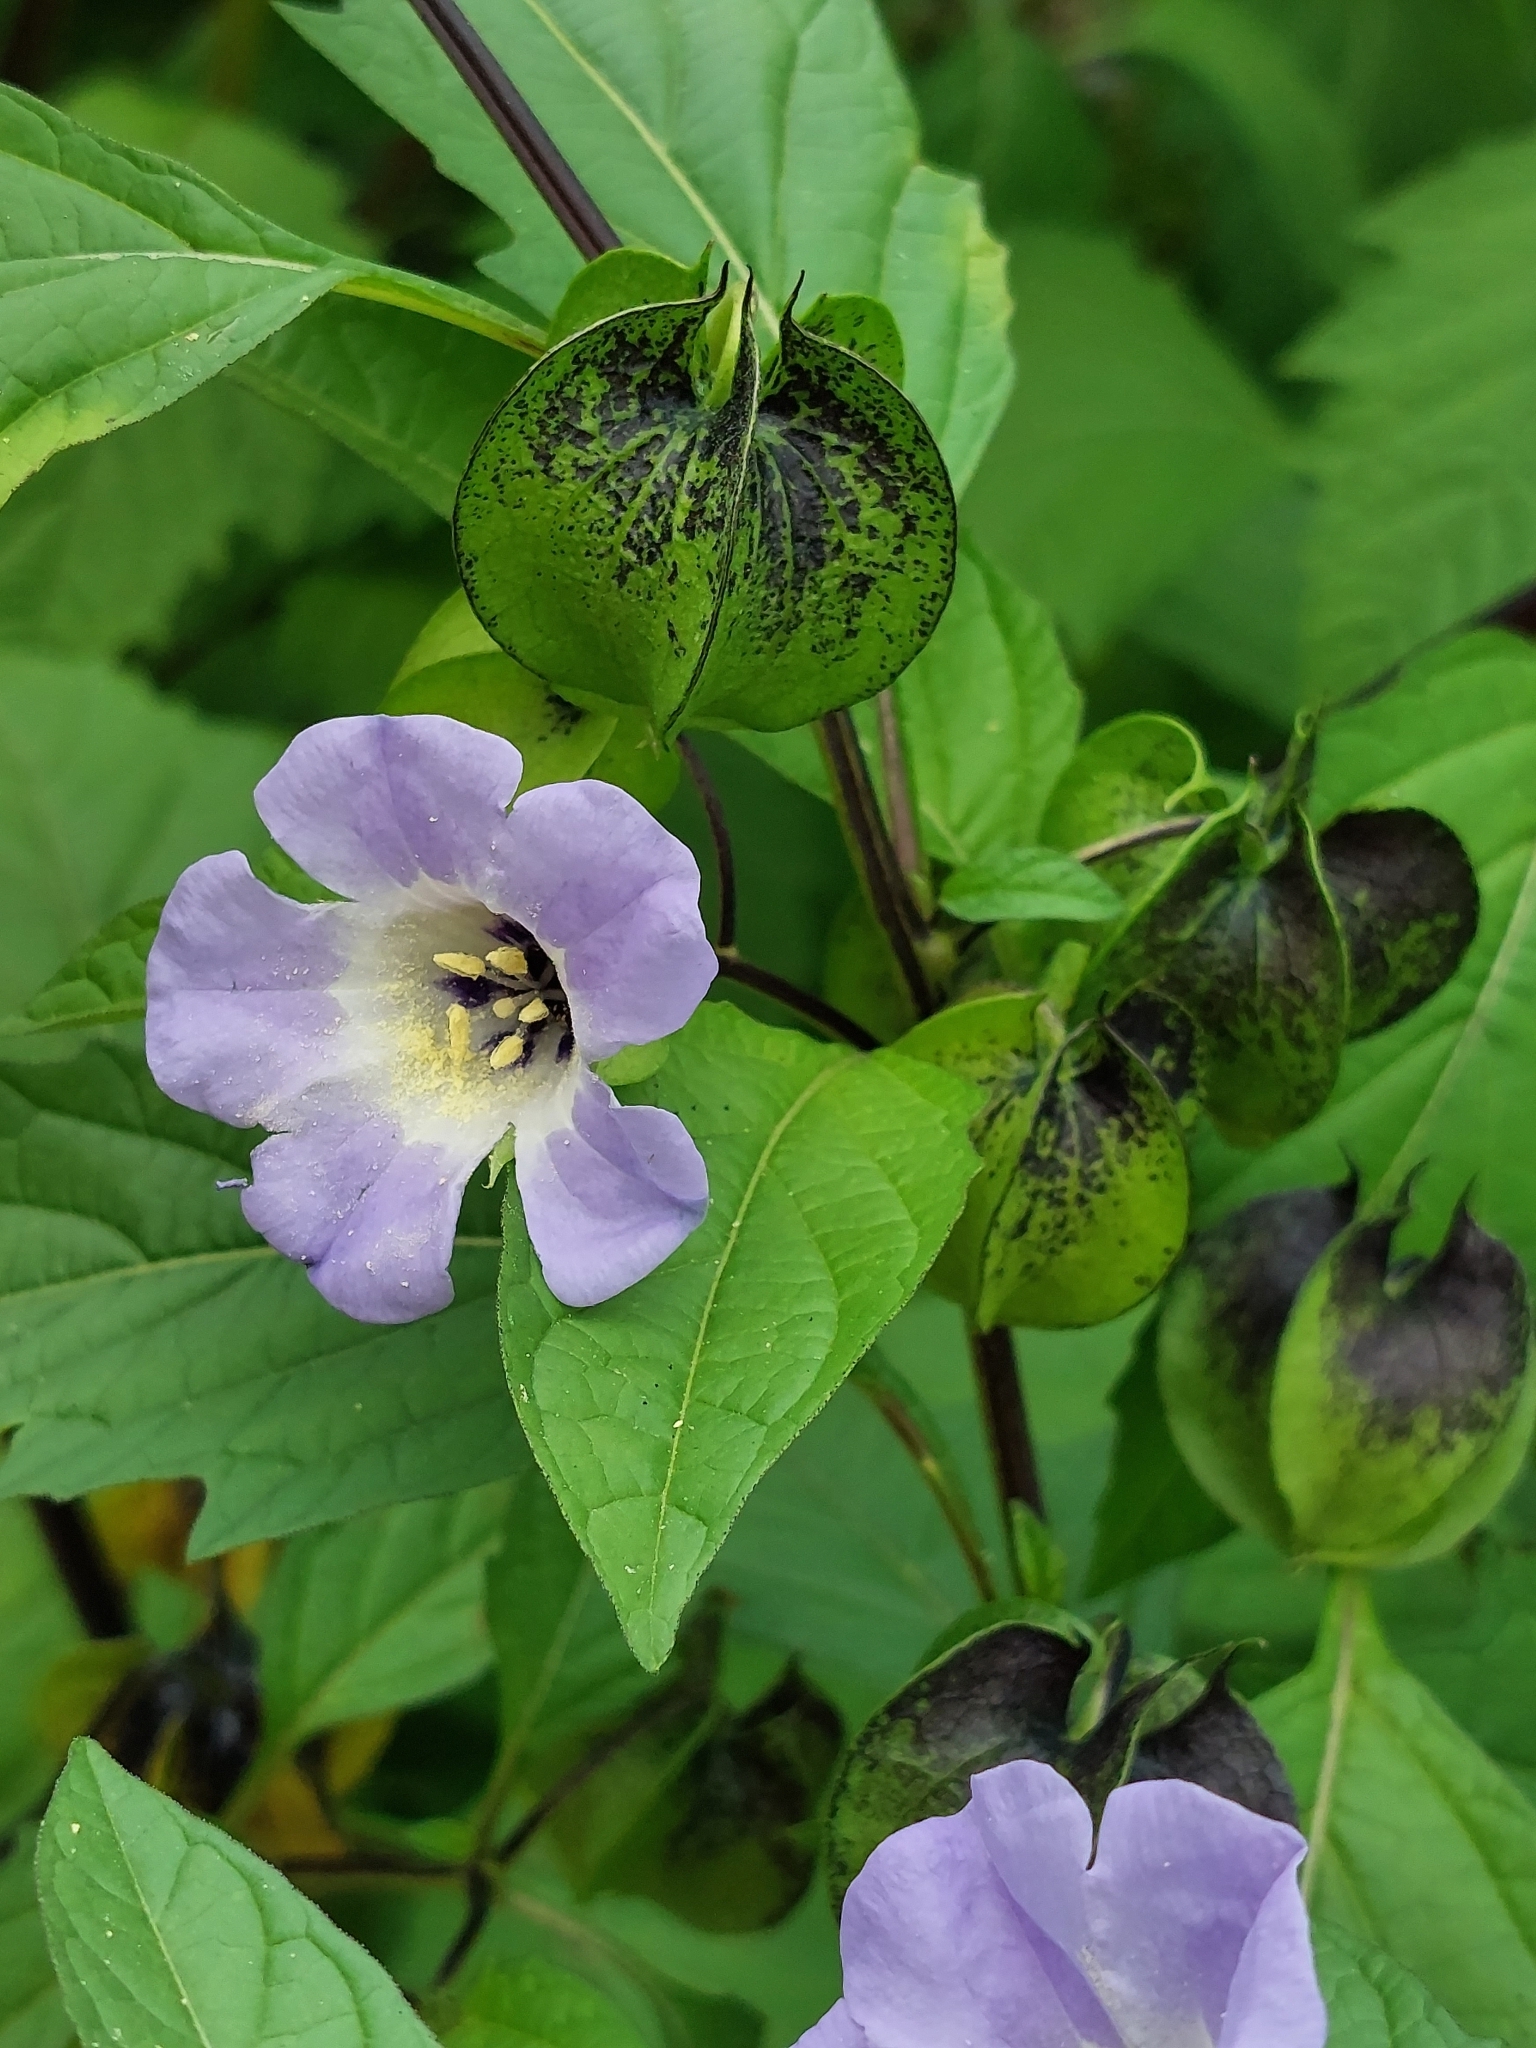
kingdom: Plantae
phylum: Tracheophyta
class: Magnoliopsida
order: Solanales
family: Solanaceae
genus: Nicandra
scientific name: Nicandra physalodes
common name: Apple-of-peru
